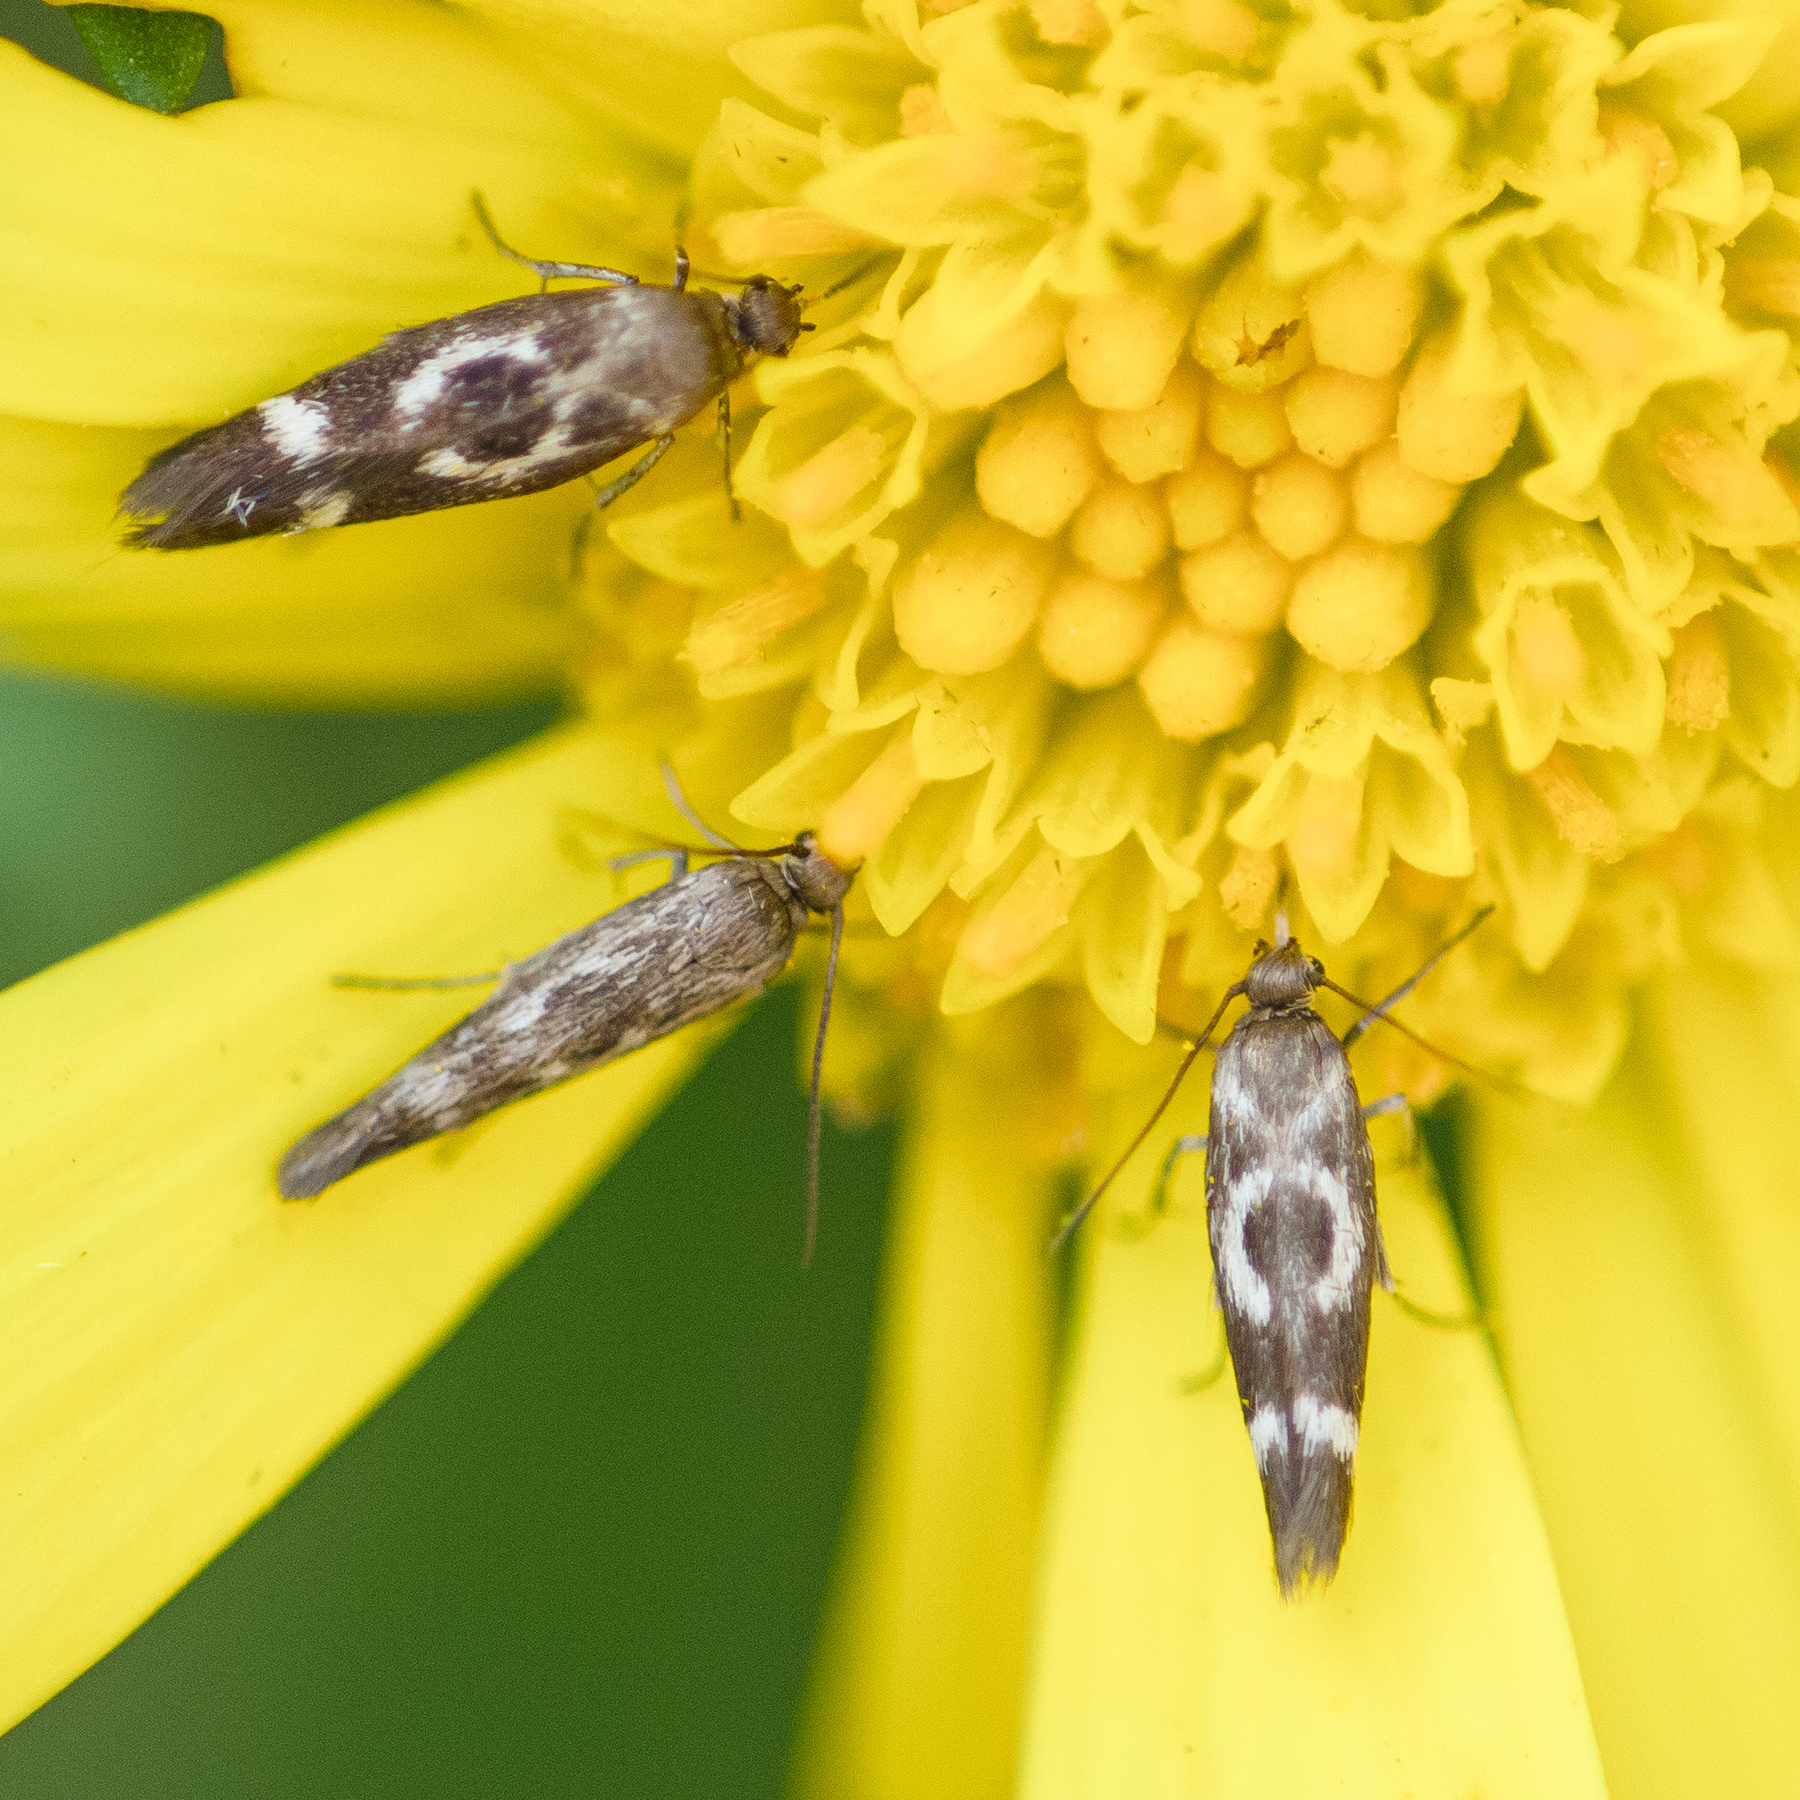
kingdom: Animalia
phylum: Arthropoda
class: Insecta
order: Lepidoptera
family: Scythrididae
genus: Scythris
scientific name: Scythris trivinctella
